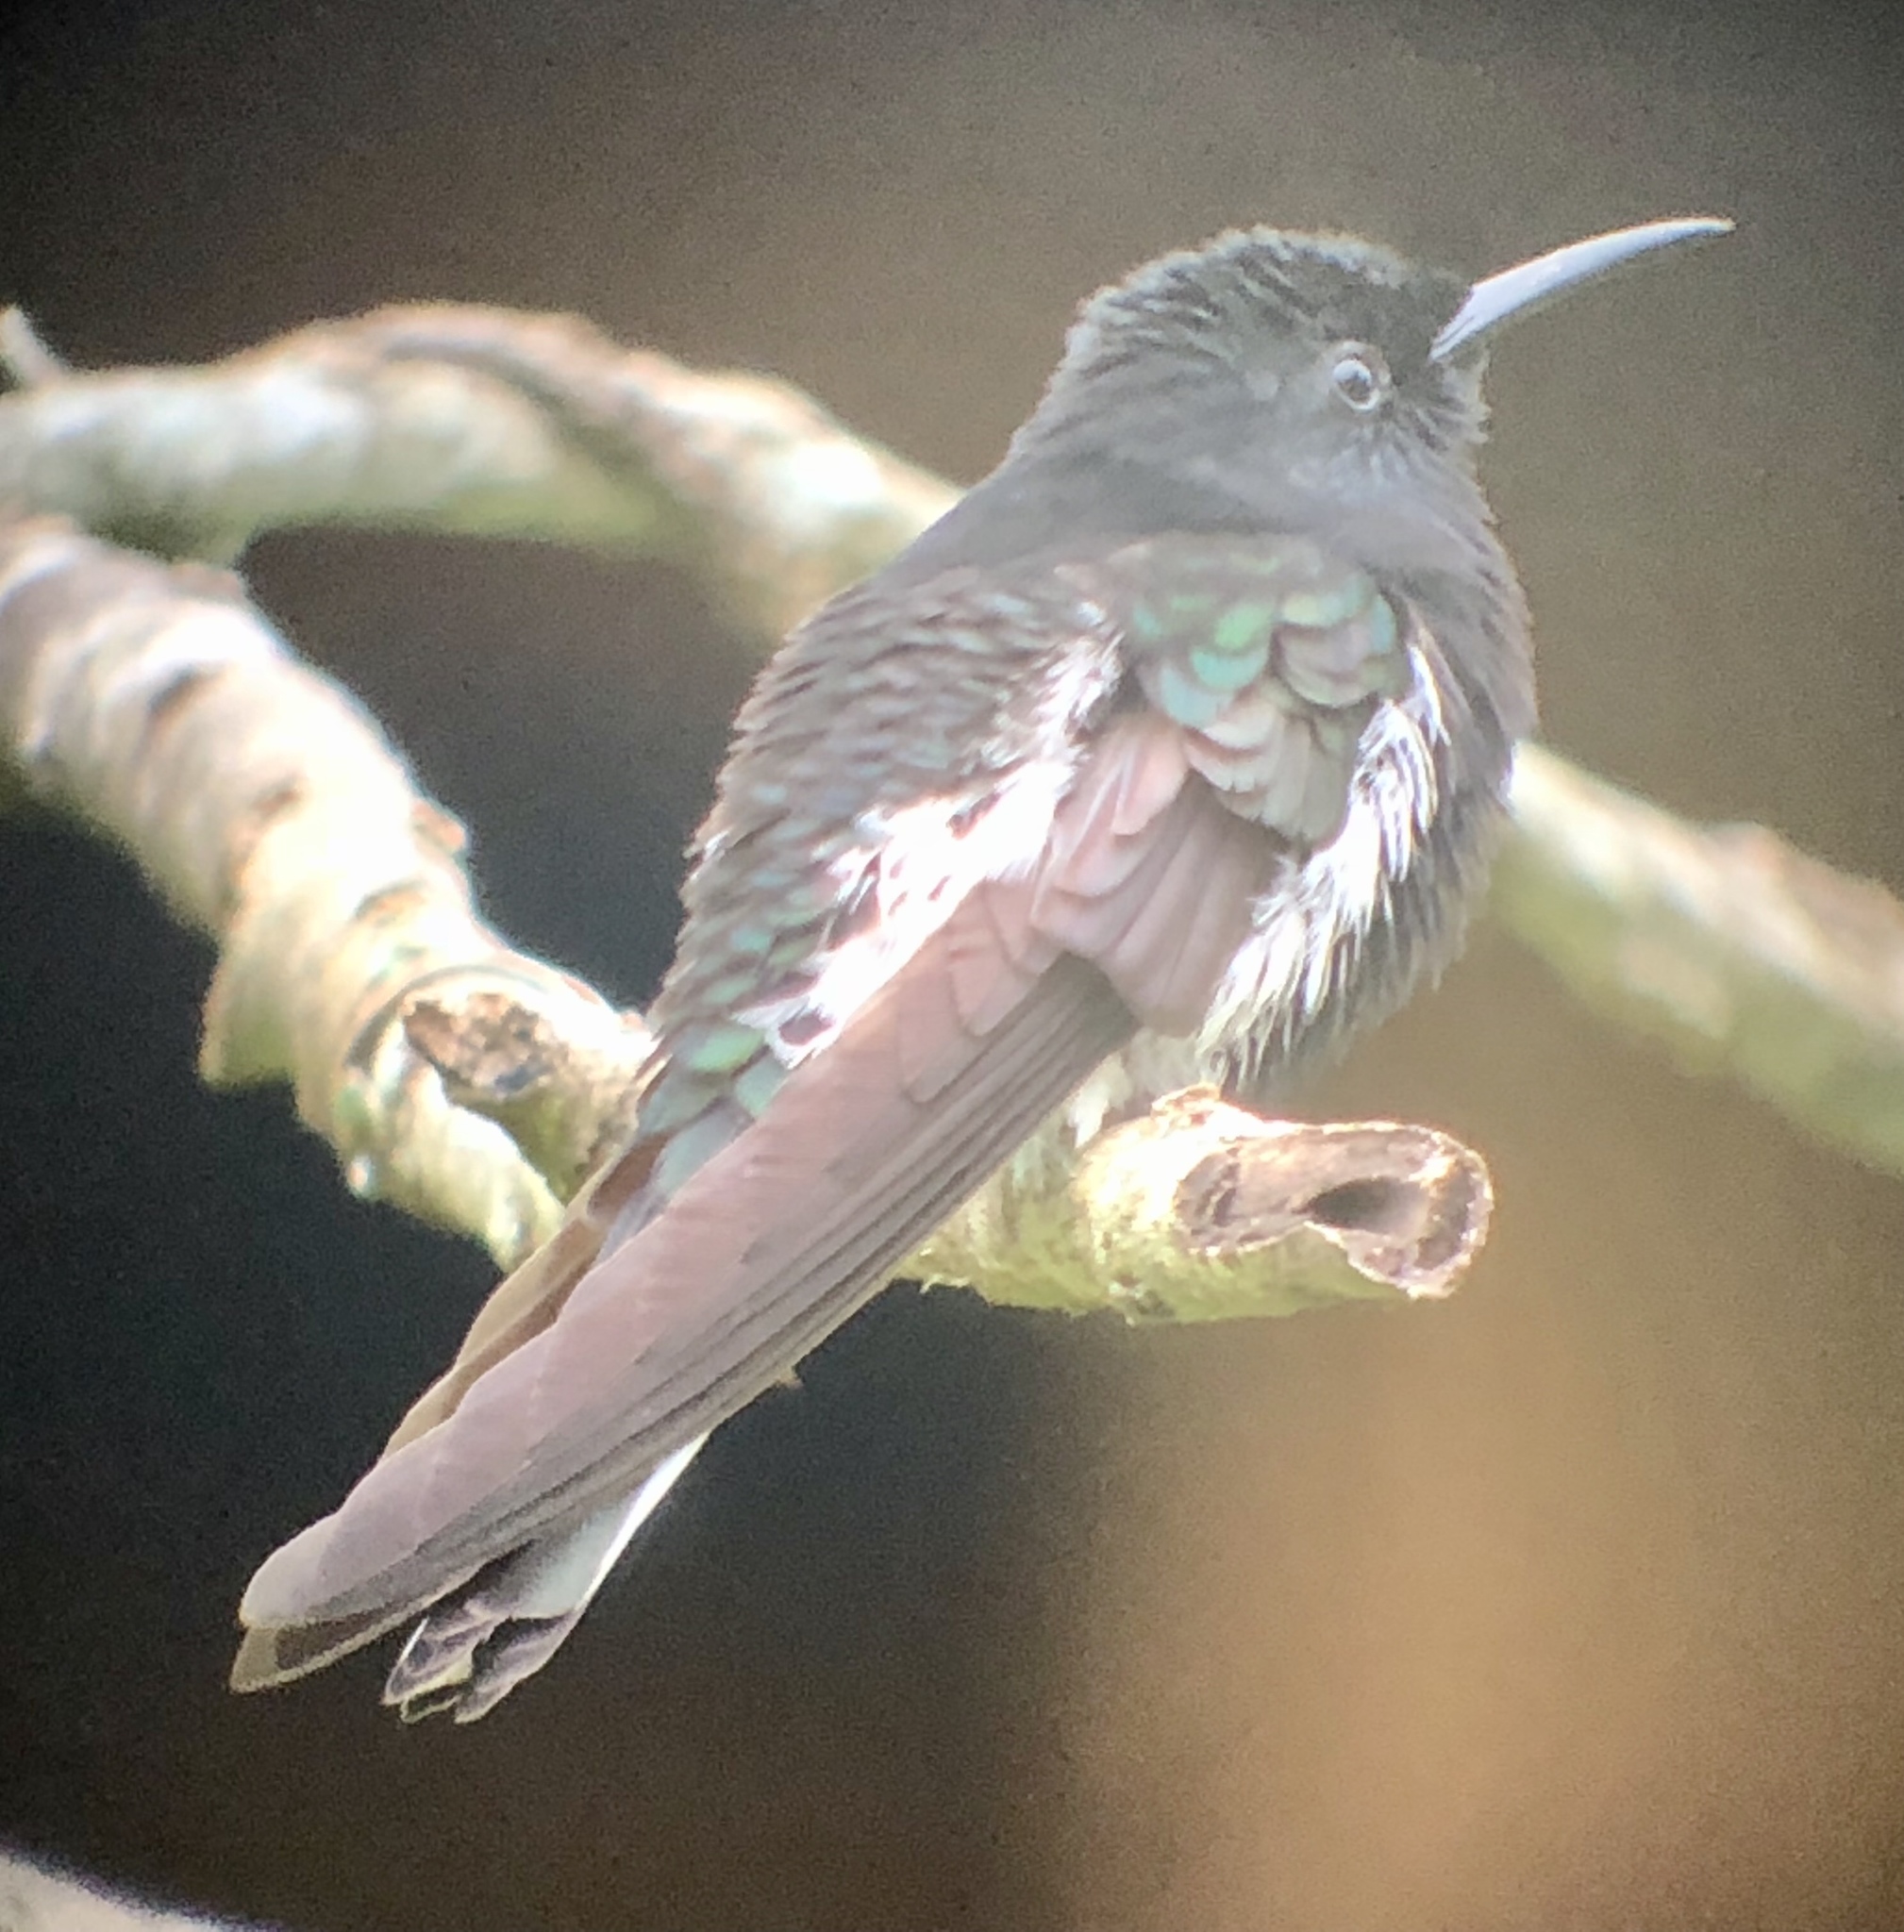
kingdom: Animalia
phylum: Chordata
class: Aves
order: Apodiformes
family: Trochilidae
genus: Florisuga
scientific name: Florisuga fusca
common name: Black jacobin
